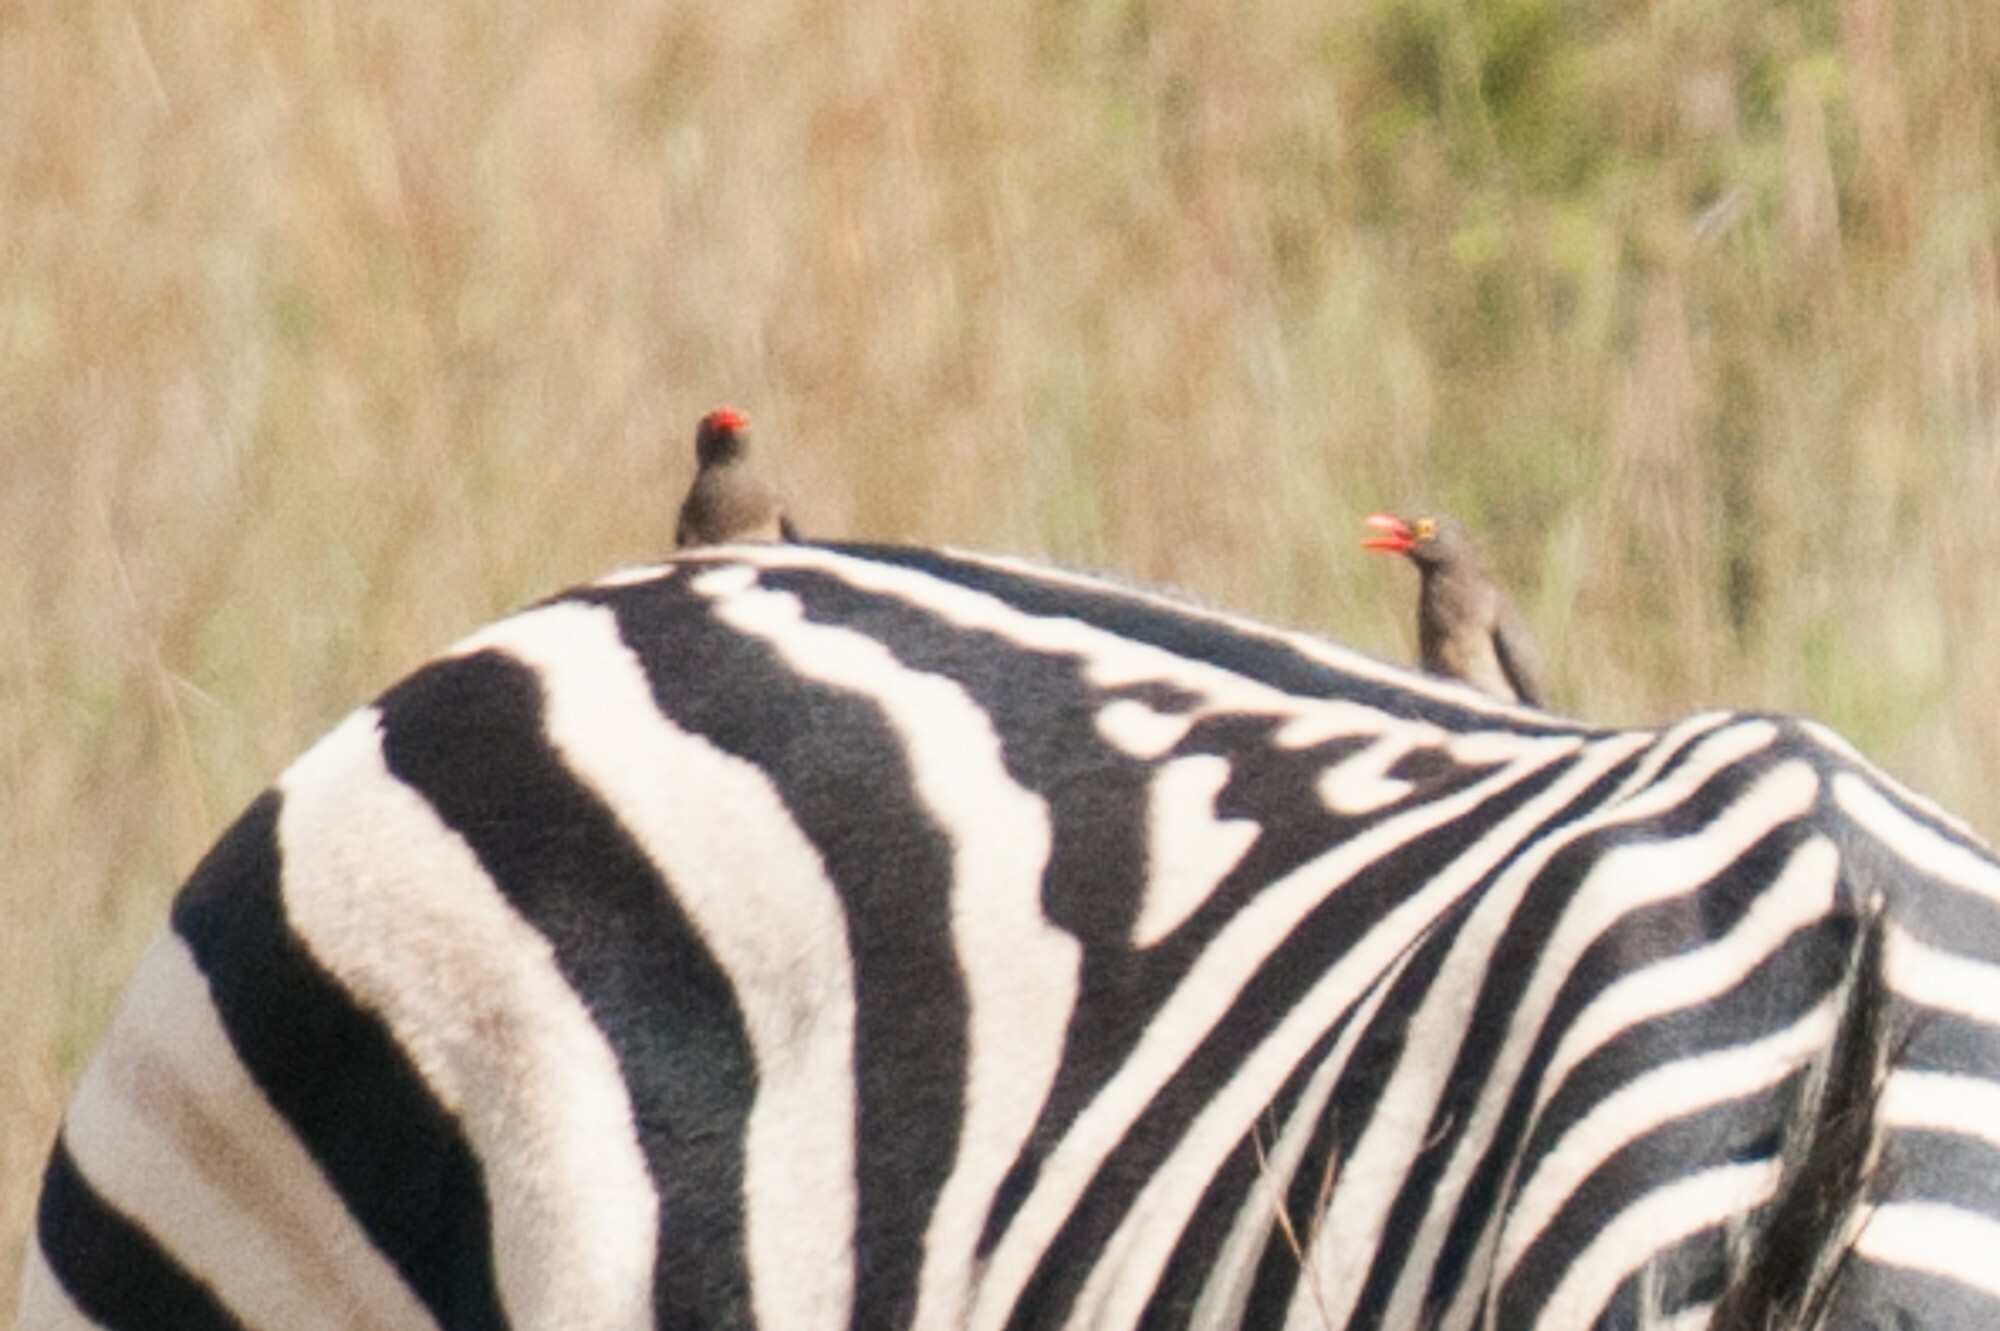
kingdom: Animalia
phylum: Chordata
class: Aves
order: Passeriformes
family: Buphagidae
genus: Buphagus
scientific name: Buphagus erythrorhynchus
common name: Red-billed oxpecker
